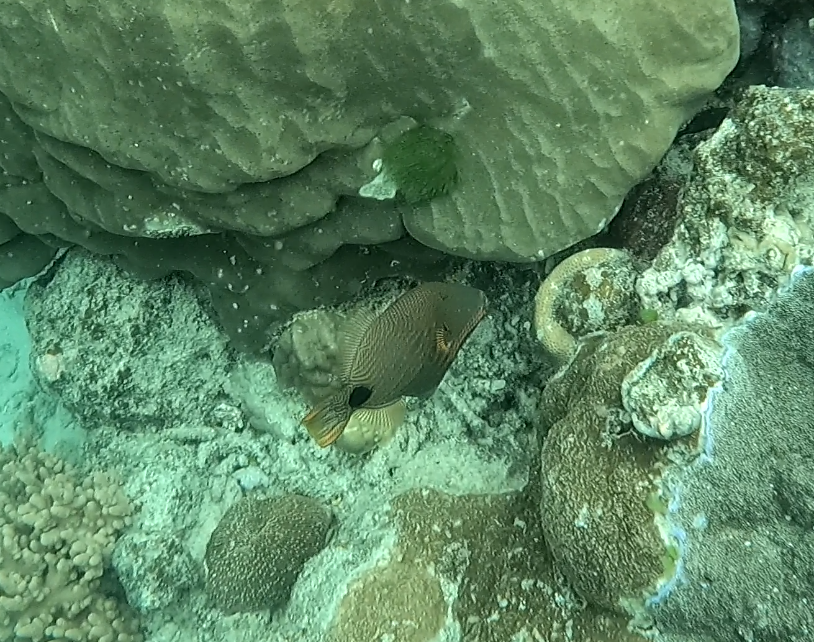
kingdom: Animalia
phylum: Chordata
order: Tetraodontiformes
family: Balistidae
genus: Balistapus
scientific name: Balistapus undulatus
